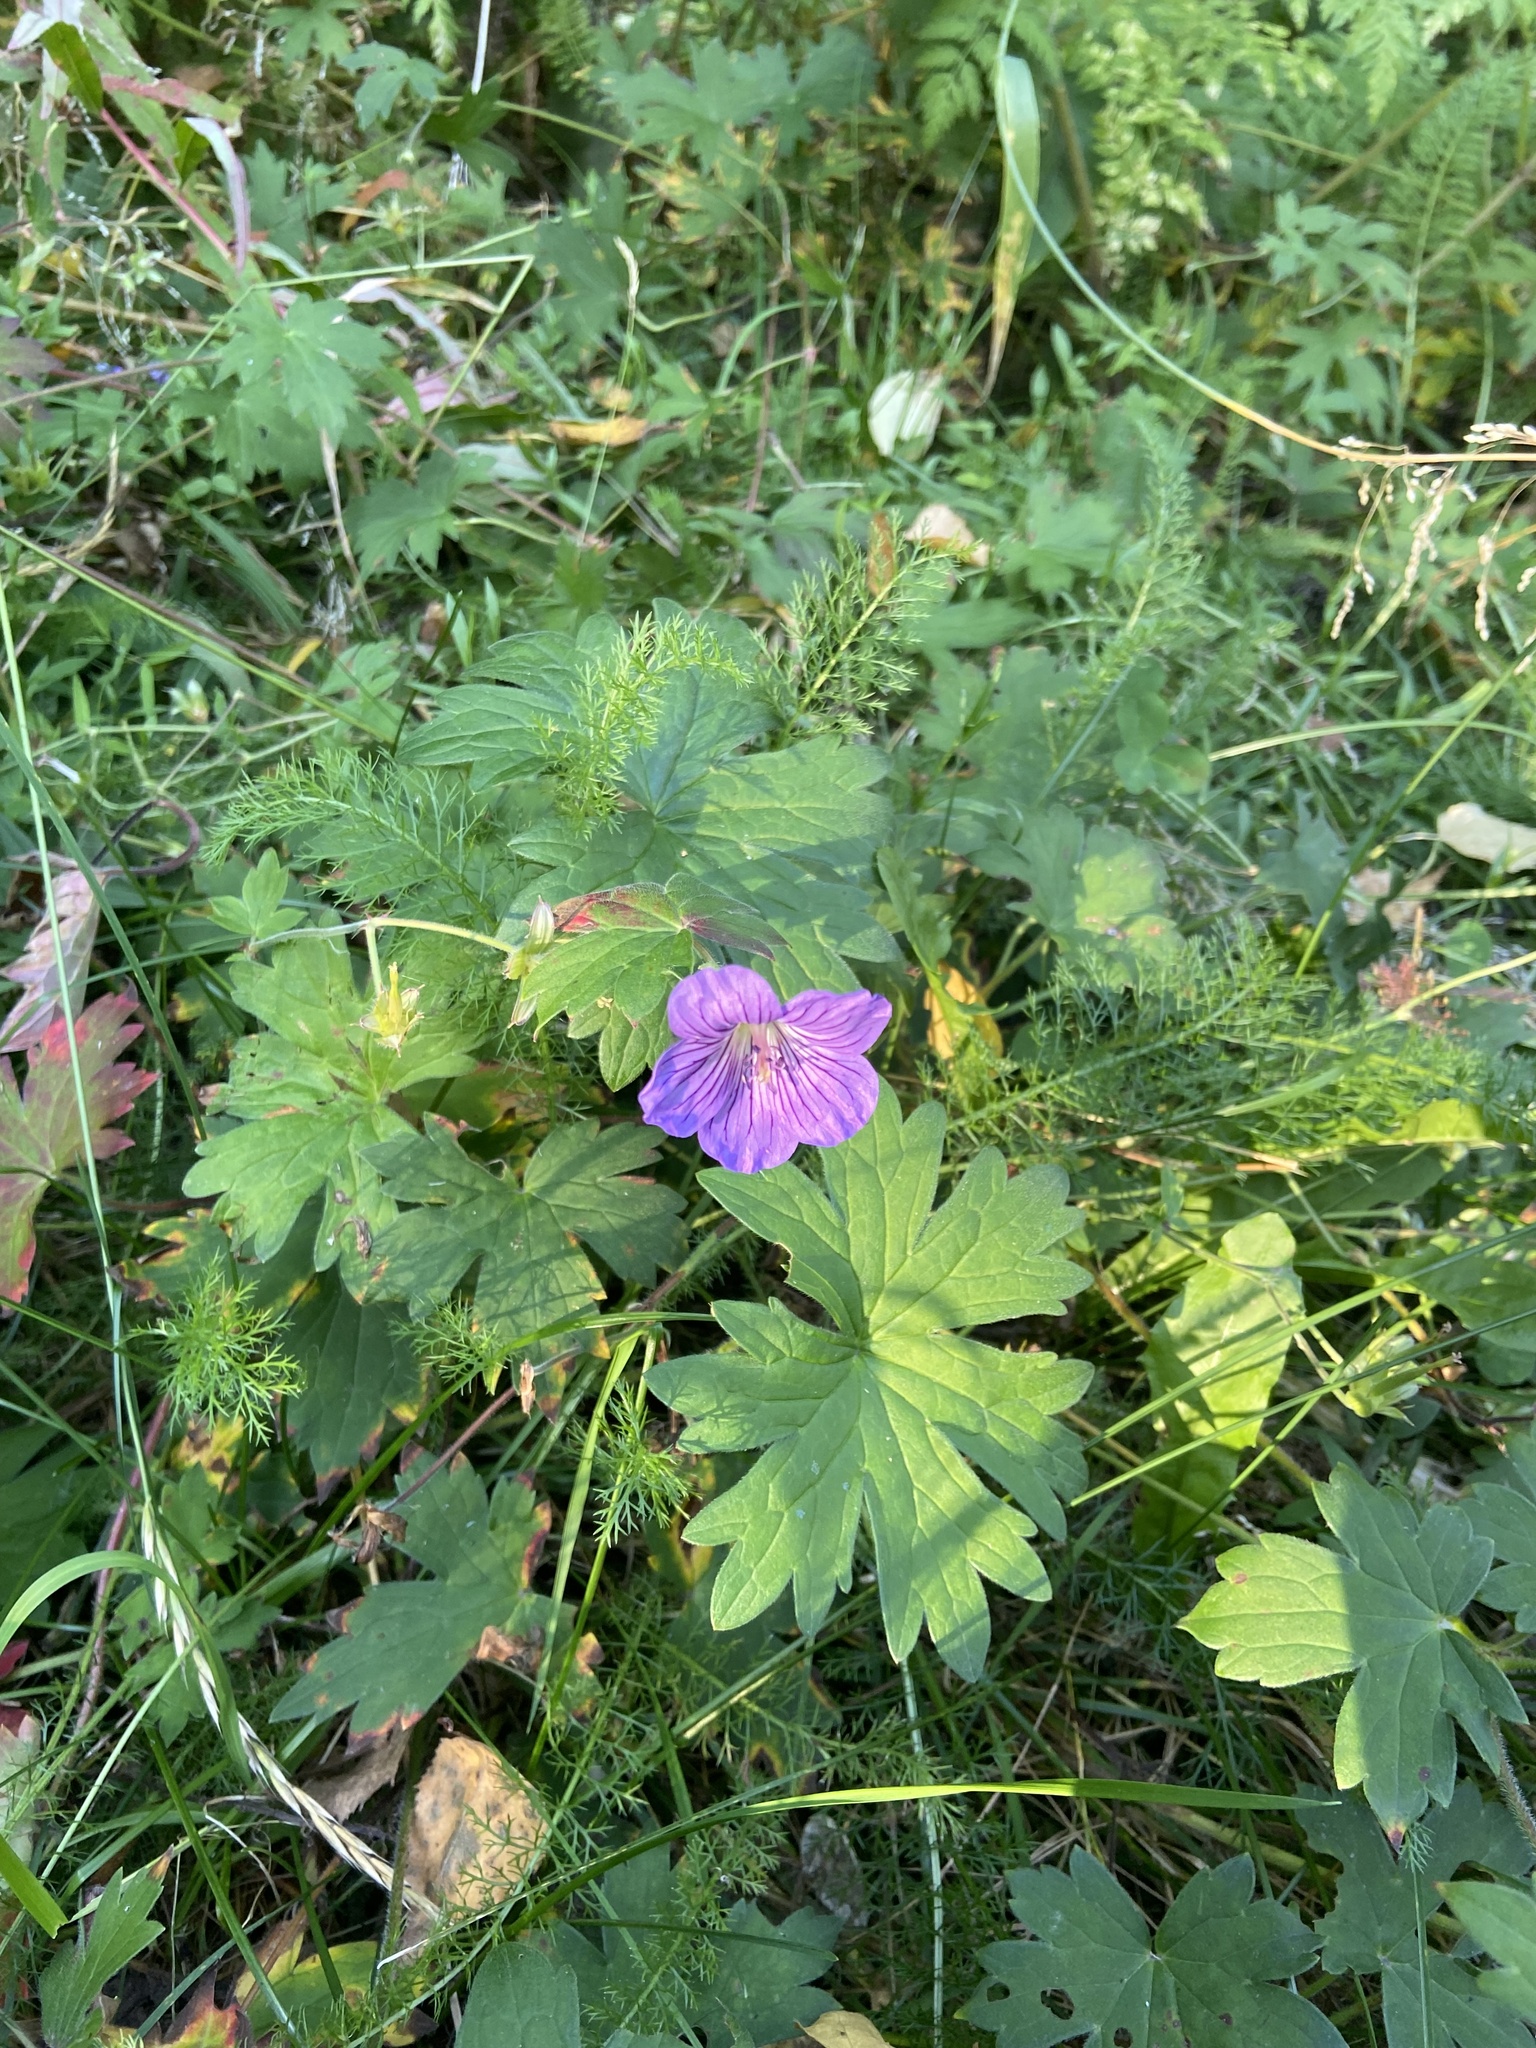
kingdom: Plantae
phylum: Tracheophyta
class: Magnoliopsida
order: Geraniales
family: Geraniaceae
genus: Geranium
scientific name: Geranium wlassovianum
